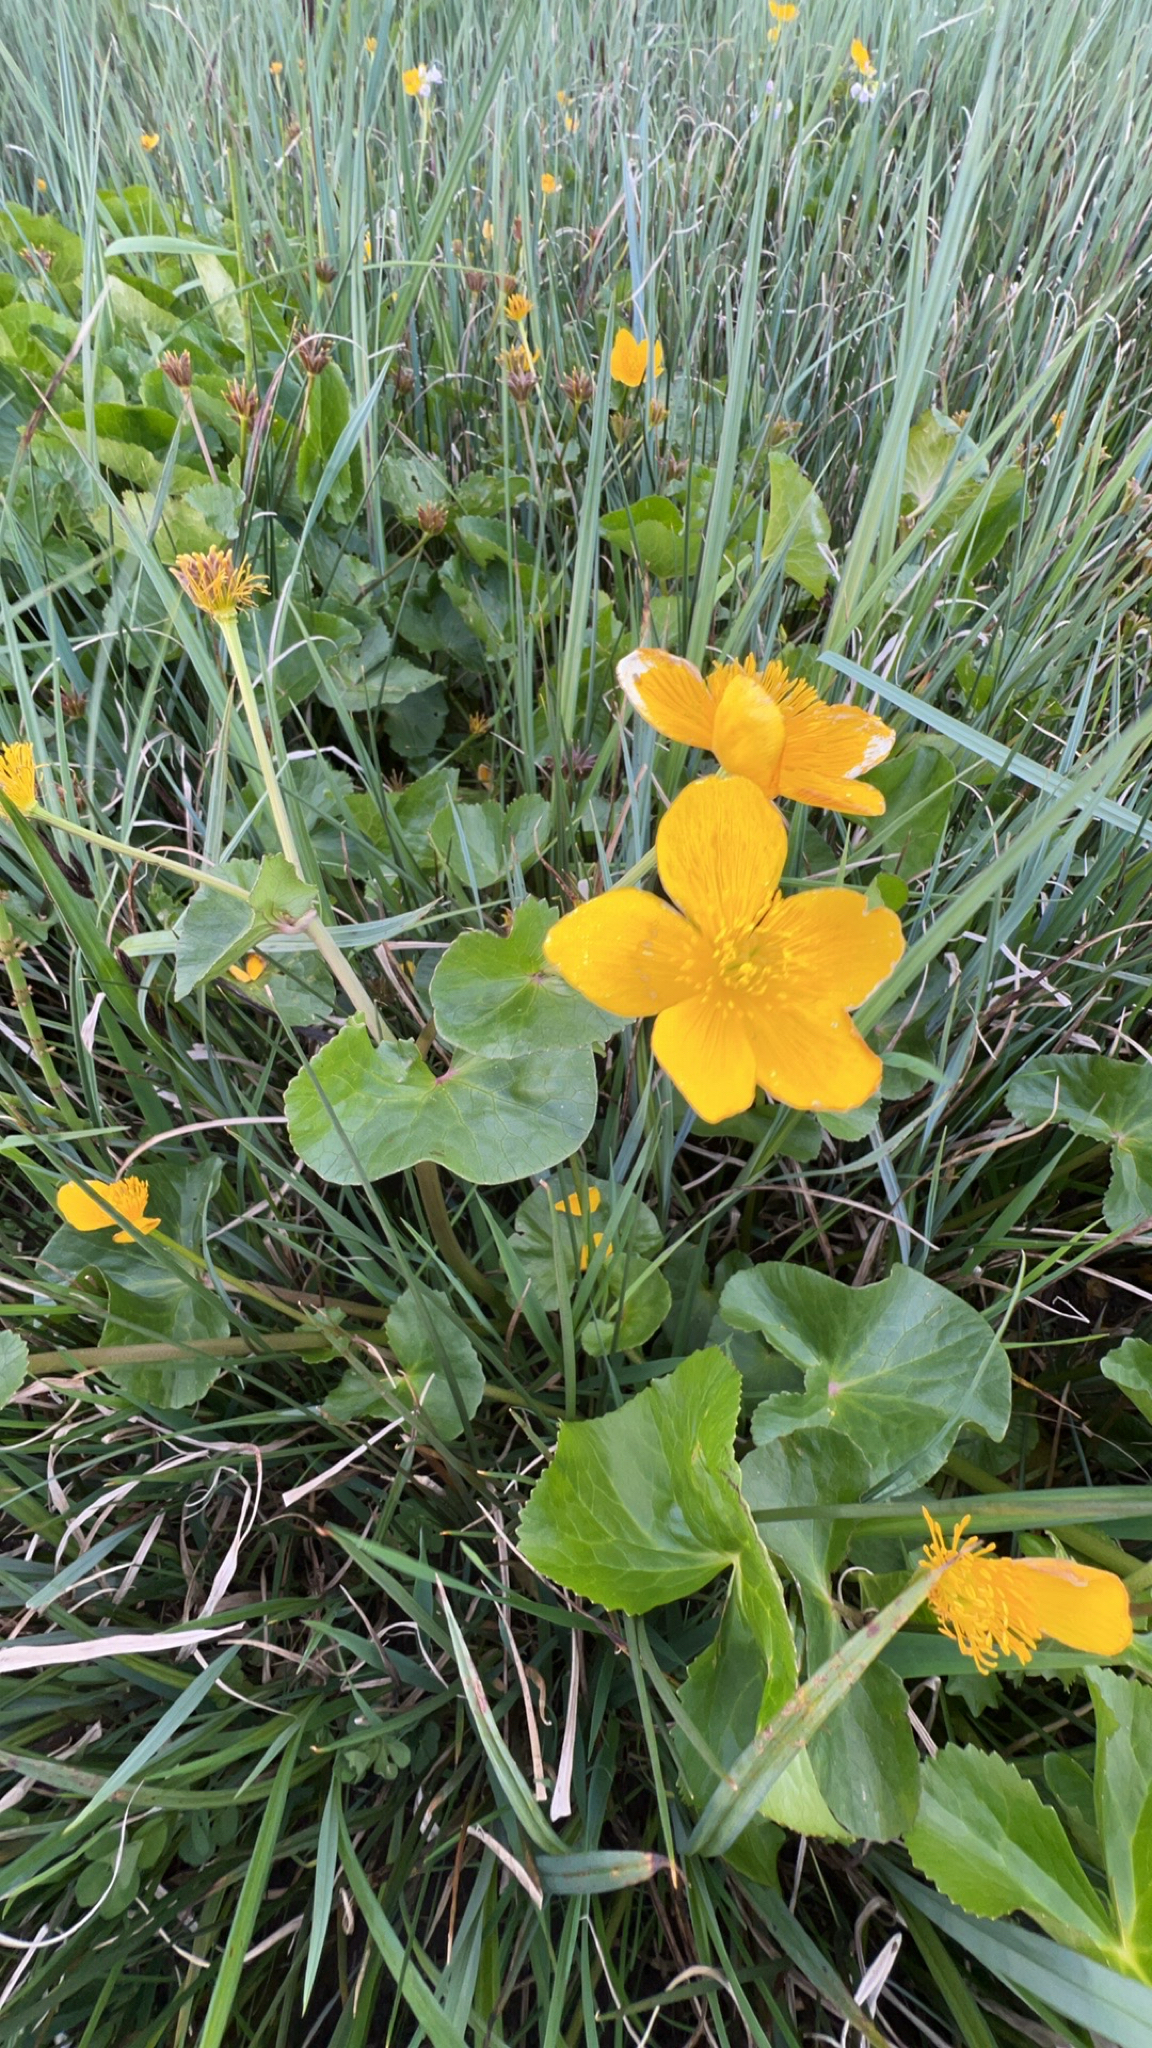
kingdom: Plantae
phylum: Tracheophyta
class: Magnoliopsida
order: Ranunculales
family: Ranunculaceae
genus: Caltha
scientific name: Caltha palustris
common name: Marsh marigold
